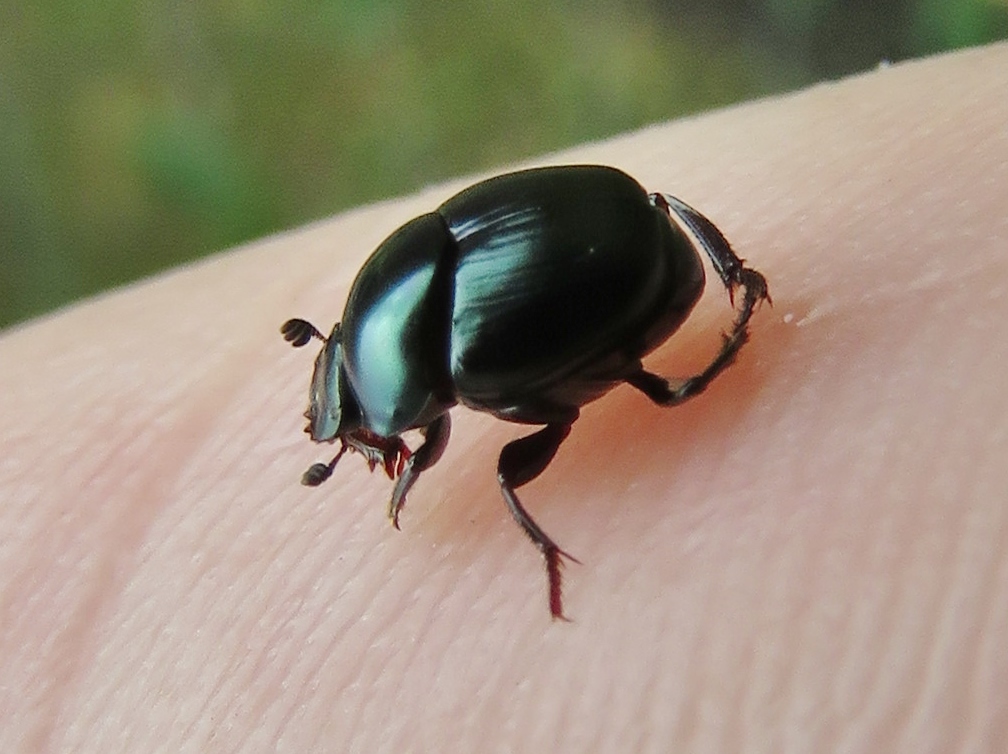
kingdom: Animalia
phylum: Arthropoda
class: Insecta
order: Coleoptera
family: Scarabaeidae
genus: Canthon
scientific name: Canthon viridis
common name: Tumblebug
